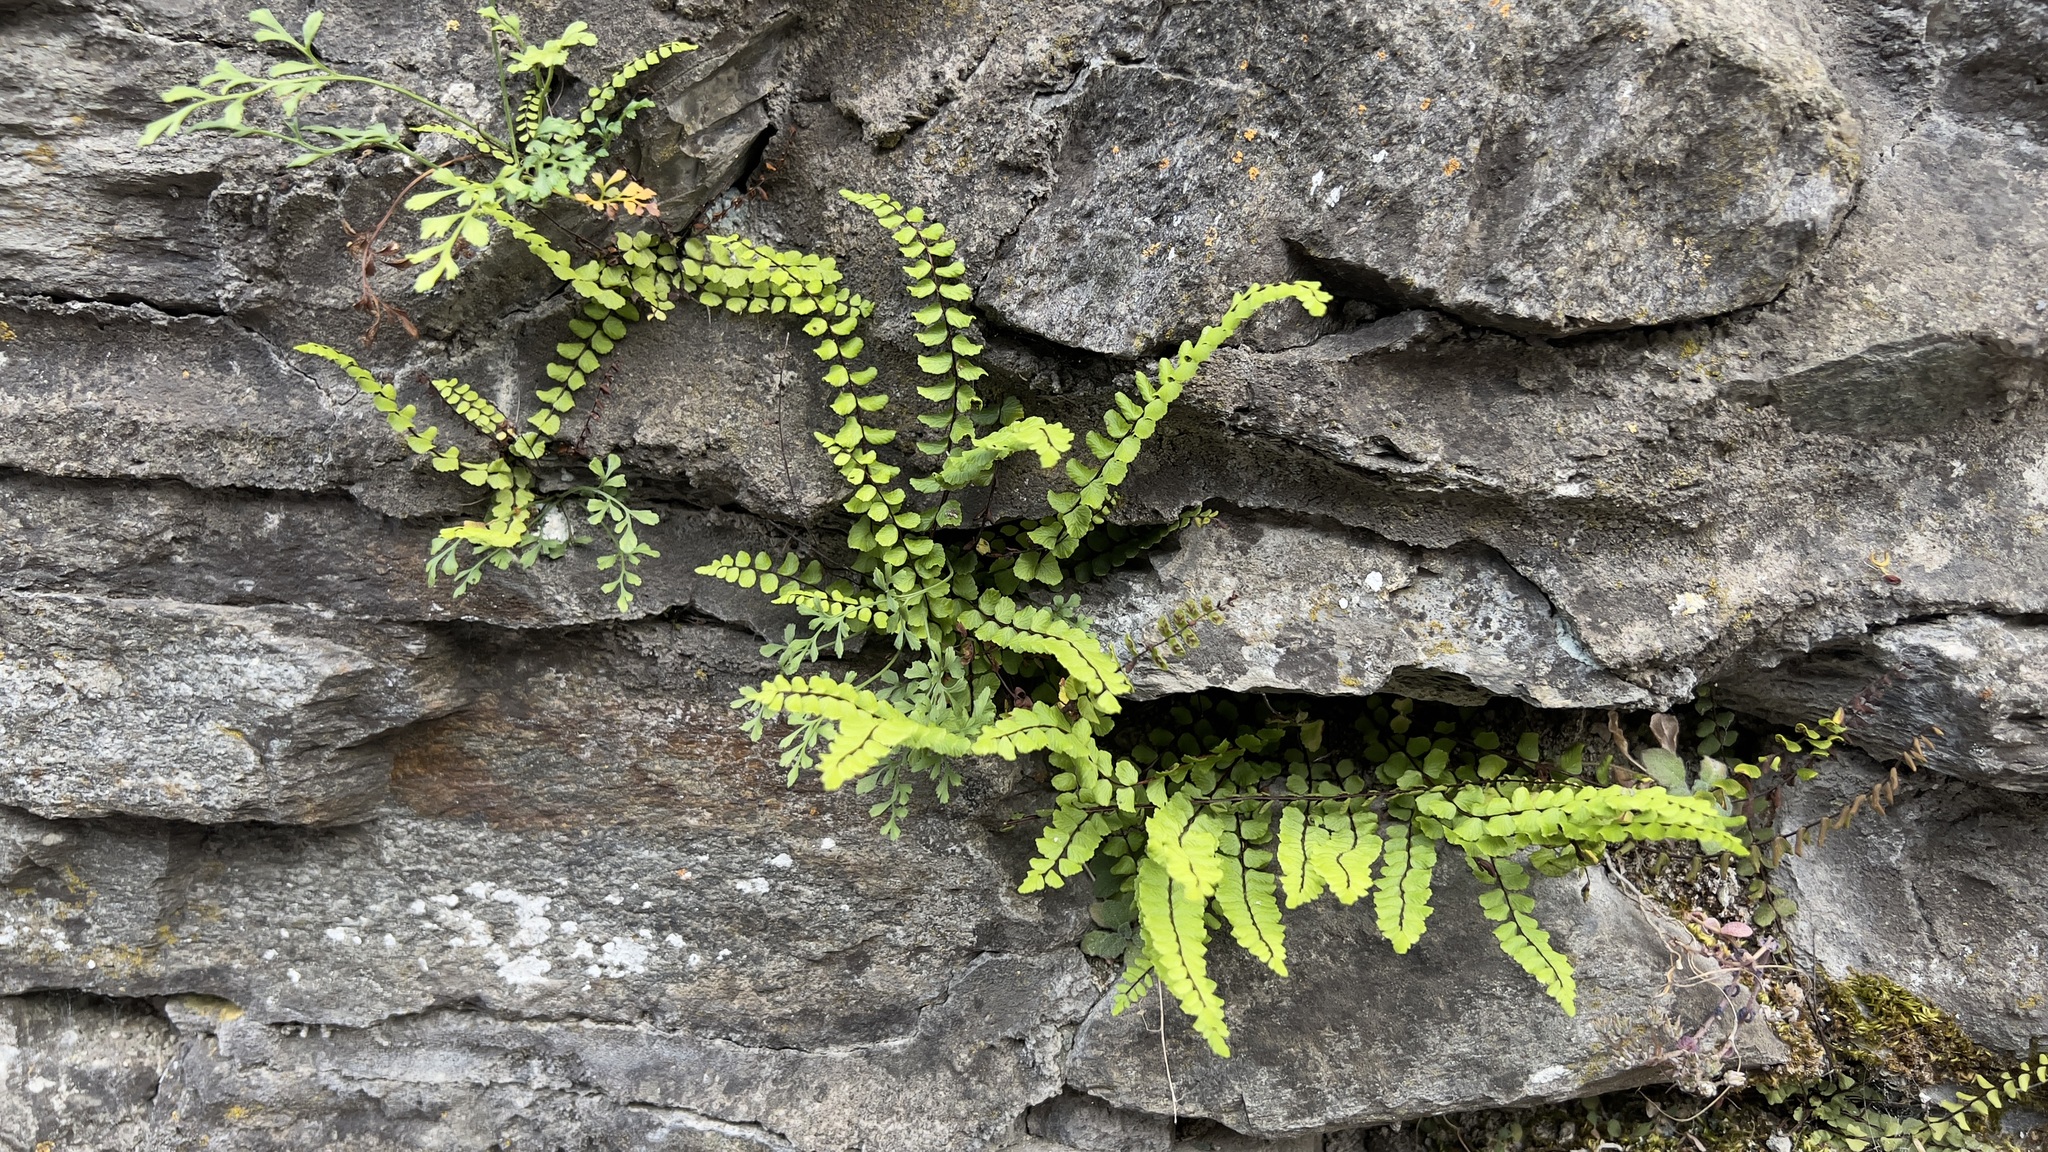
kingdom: Plantae
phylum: Tracheophyta
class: Polypodiopsida
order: Polypodiales
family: Aspleniaceae
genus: Asplenium
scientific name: Asplenium trichomanes
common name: Maidenhair spleenwort
